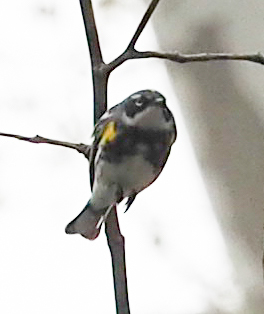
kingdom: Animalia
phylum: Chordata
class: Aves
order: Passeriformes
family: Parulidae
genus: Setophaga
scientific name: Setophaga coronata
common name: Myrtle warbler
